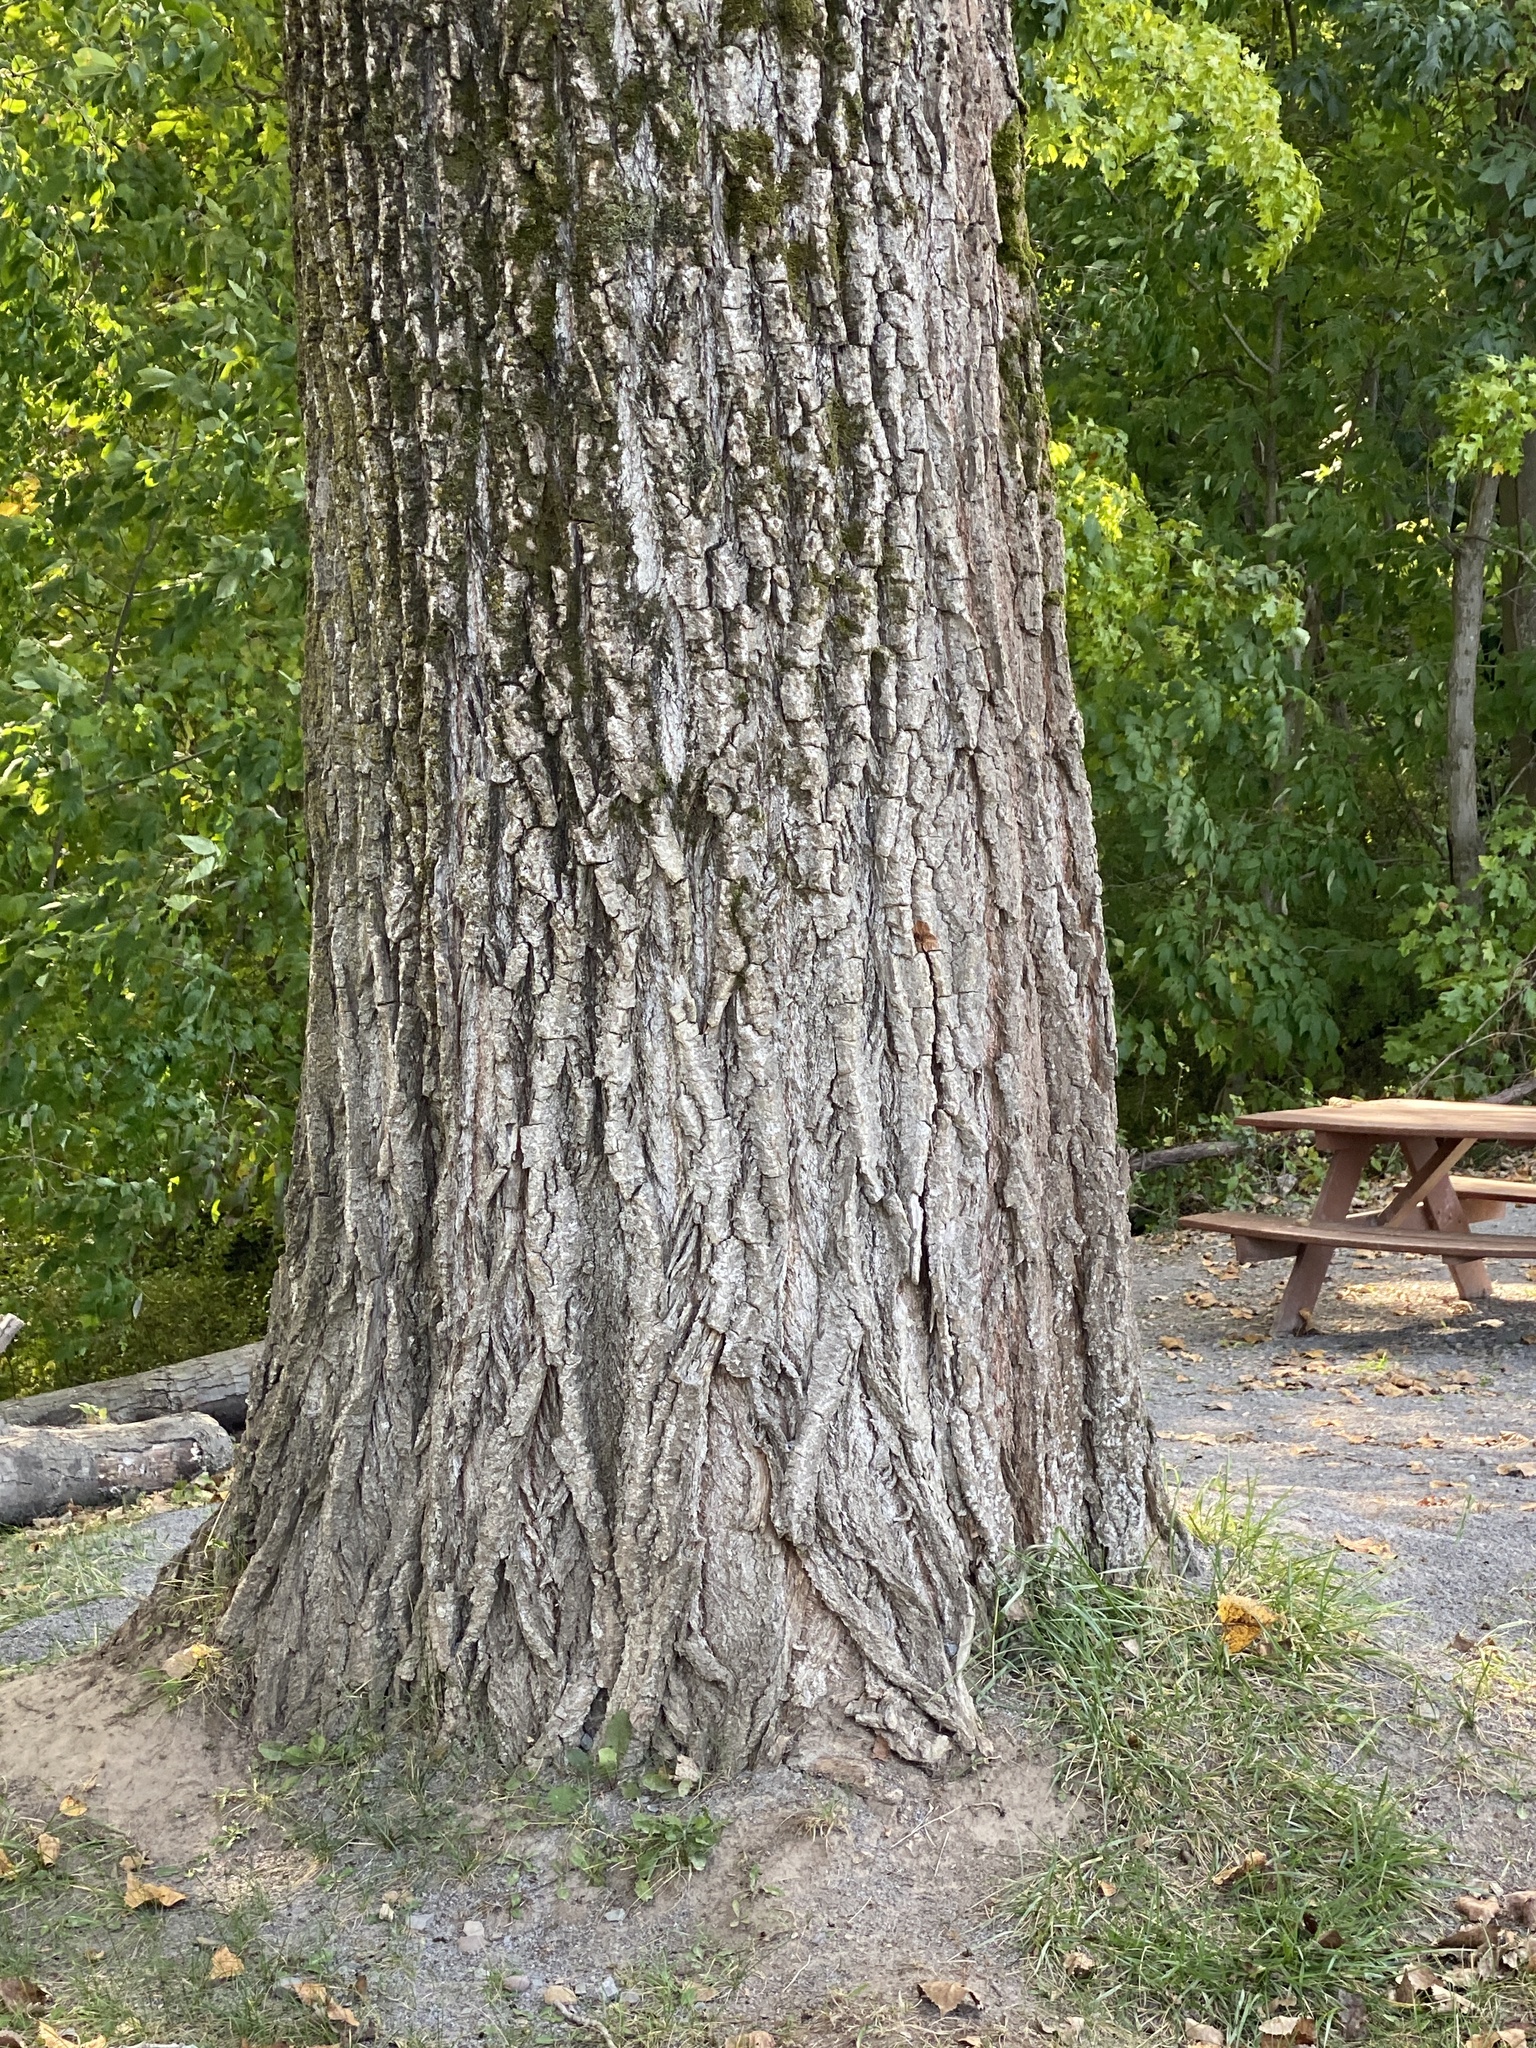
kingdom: Plantae
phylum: Tracheophyta
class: Magnoliopsida
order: Malpighiales
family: Salicaceae
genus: Populus
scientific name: Populus deltoides
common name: Eastern cottonwood
